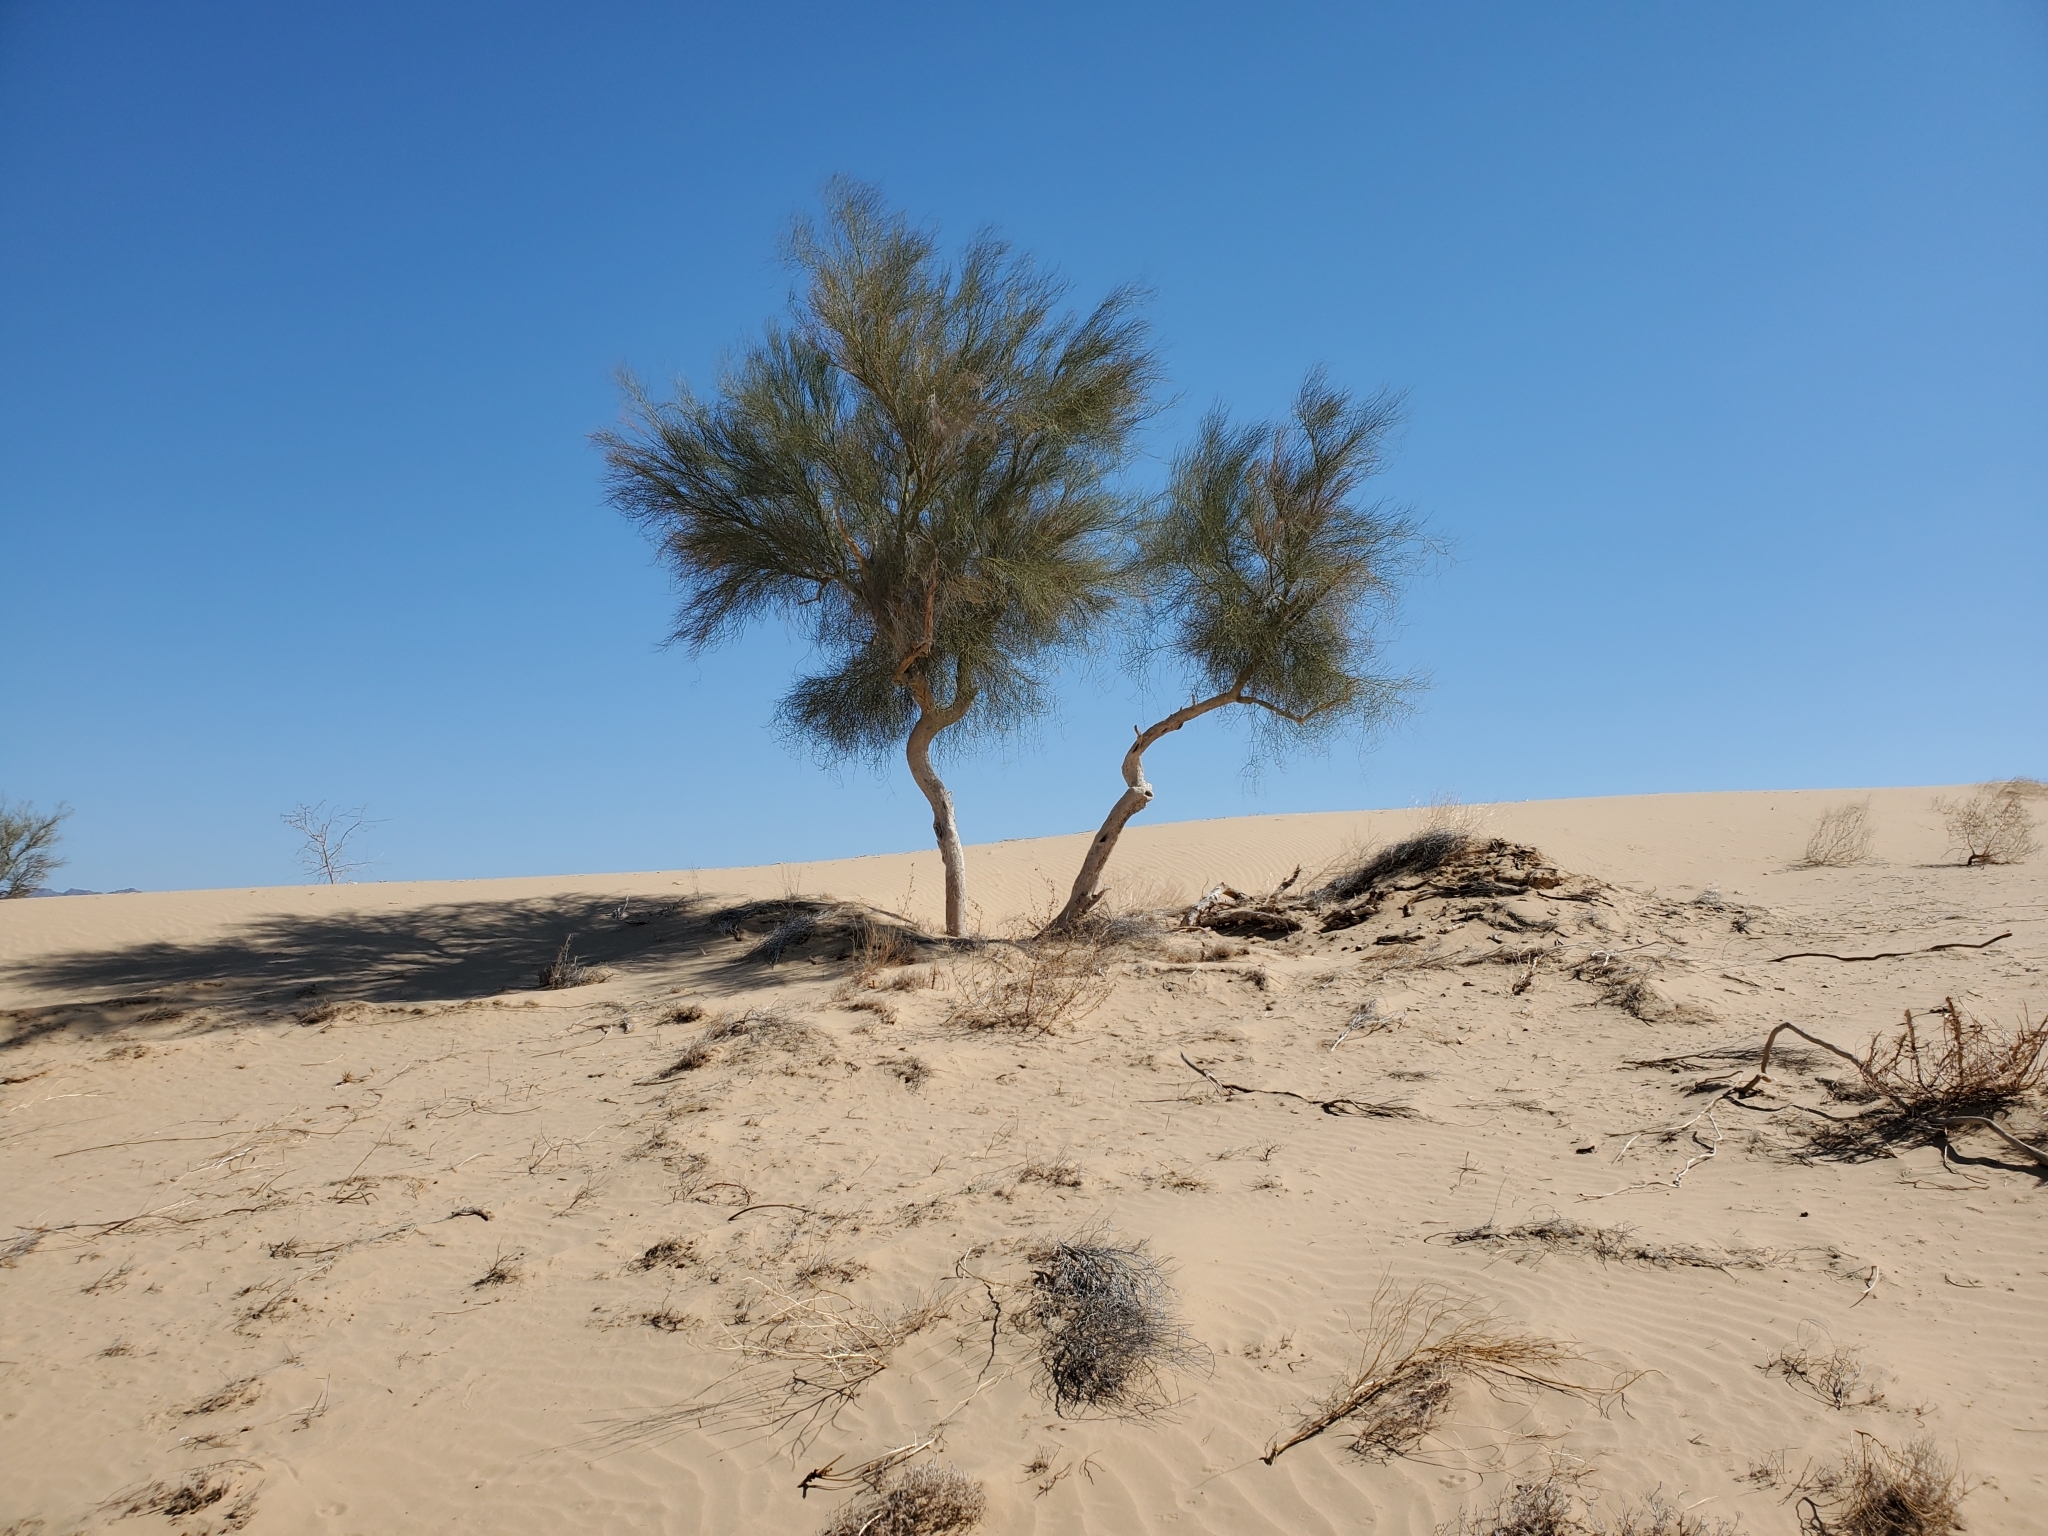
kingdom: Plantae
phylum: Tracheophyta
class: Magnoliopsida
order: Fabales
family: Fabaceae
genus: Parkinsonia
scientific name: Parkinsonia florida
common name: Blue paloverde
